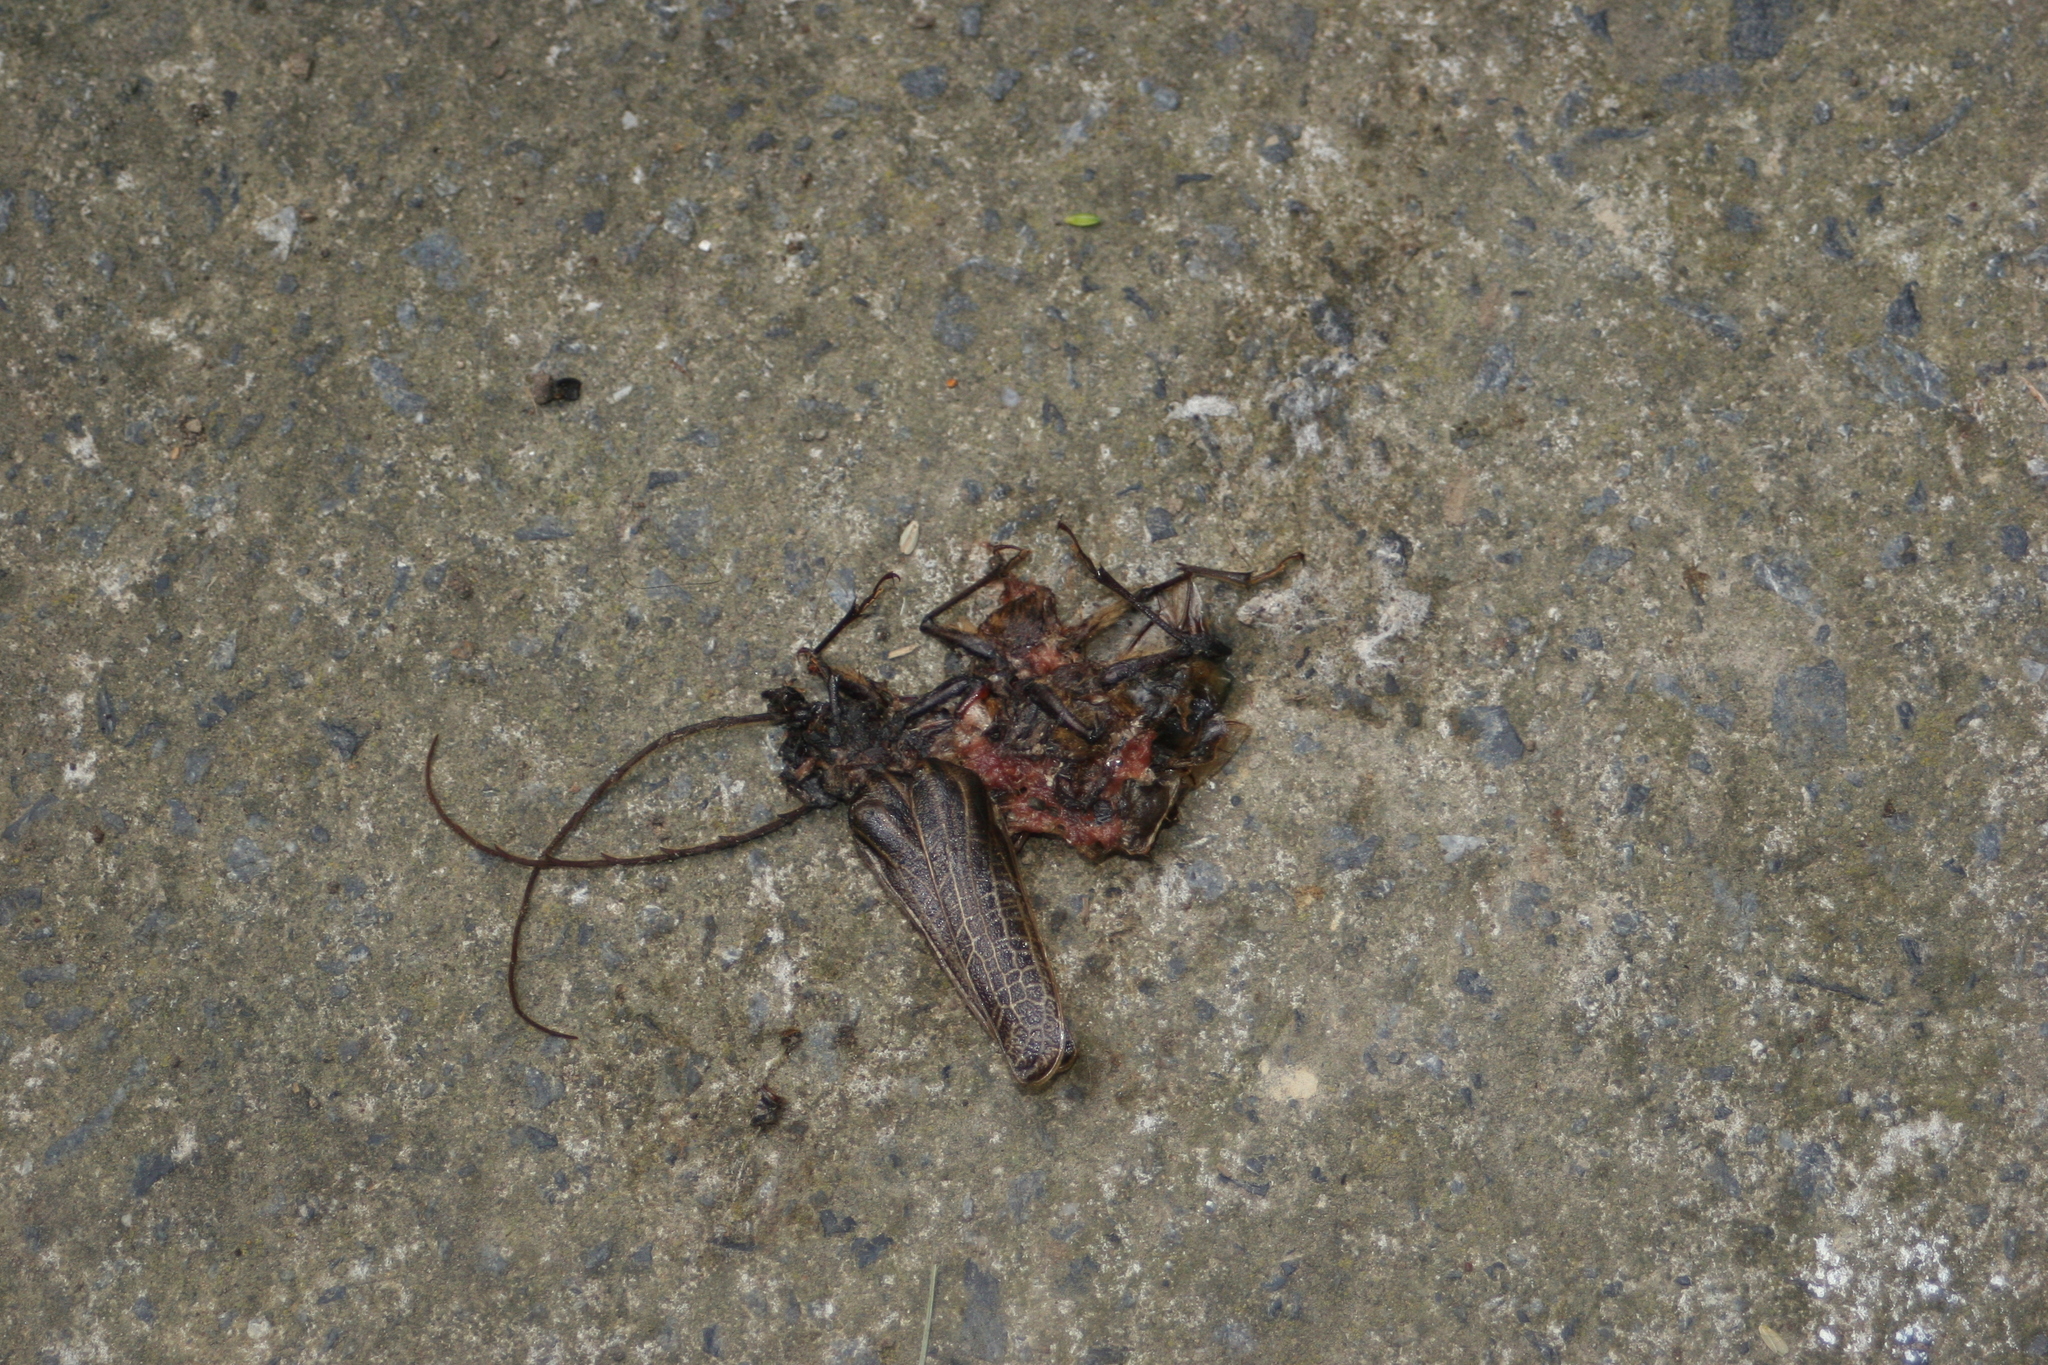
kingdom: Animalia
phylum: Arthropoda
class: Insecta
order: Coleoptera
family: Cerambycidae
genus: Prionoplus
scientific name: Prionoplus reticularis
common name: Huhu beetle
